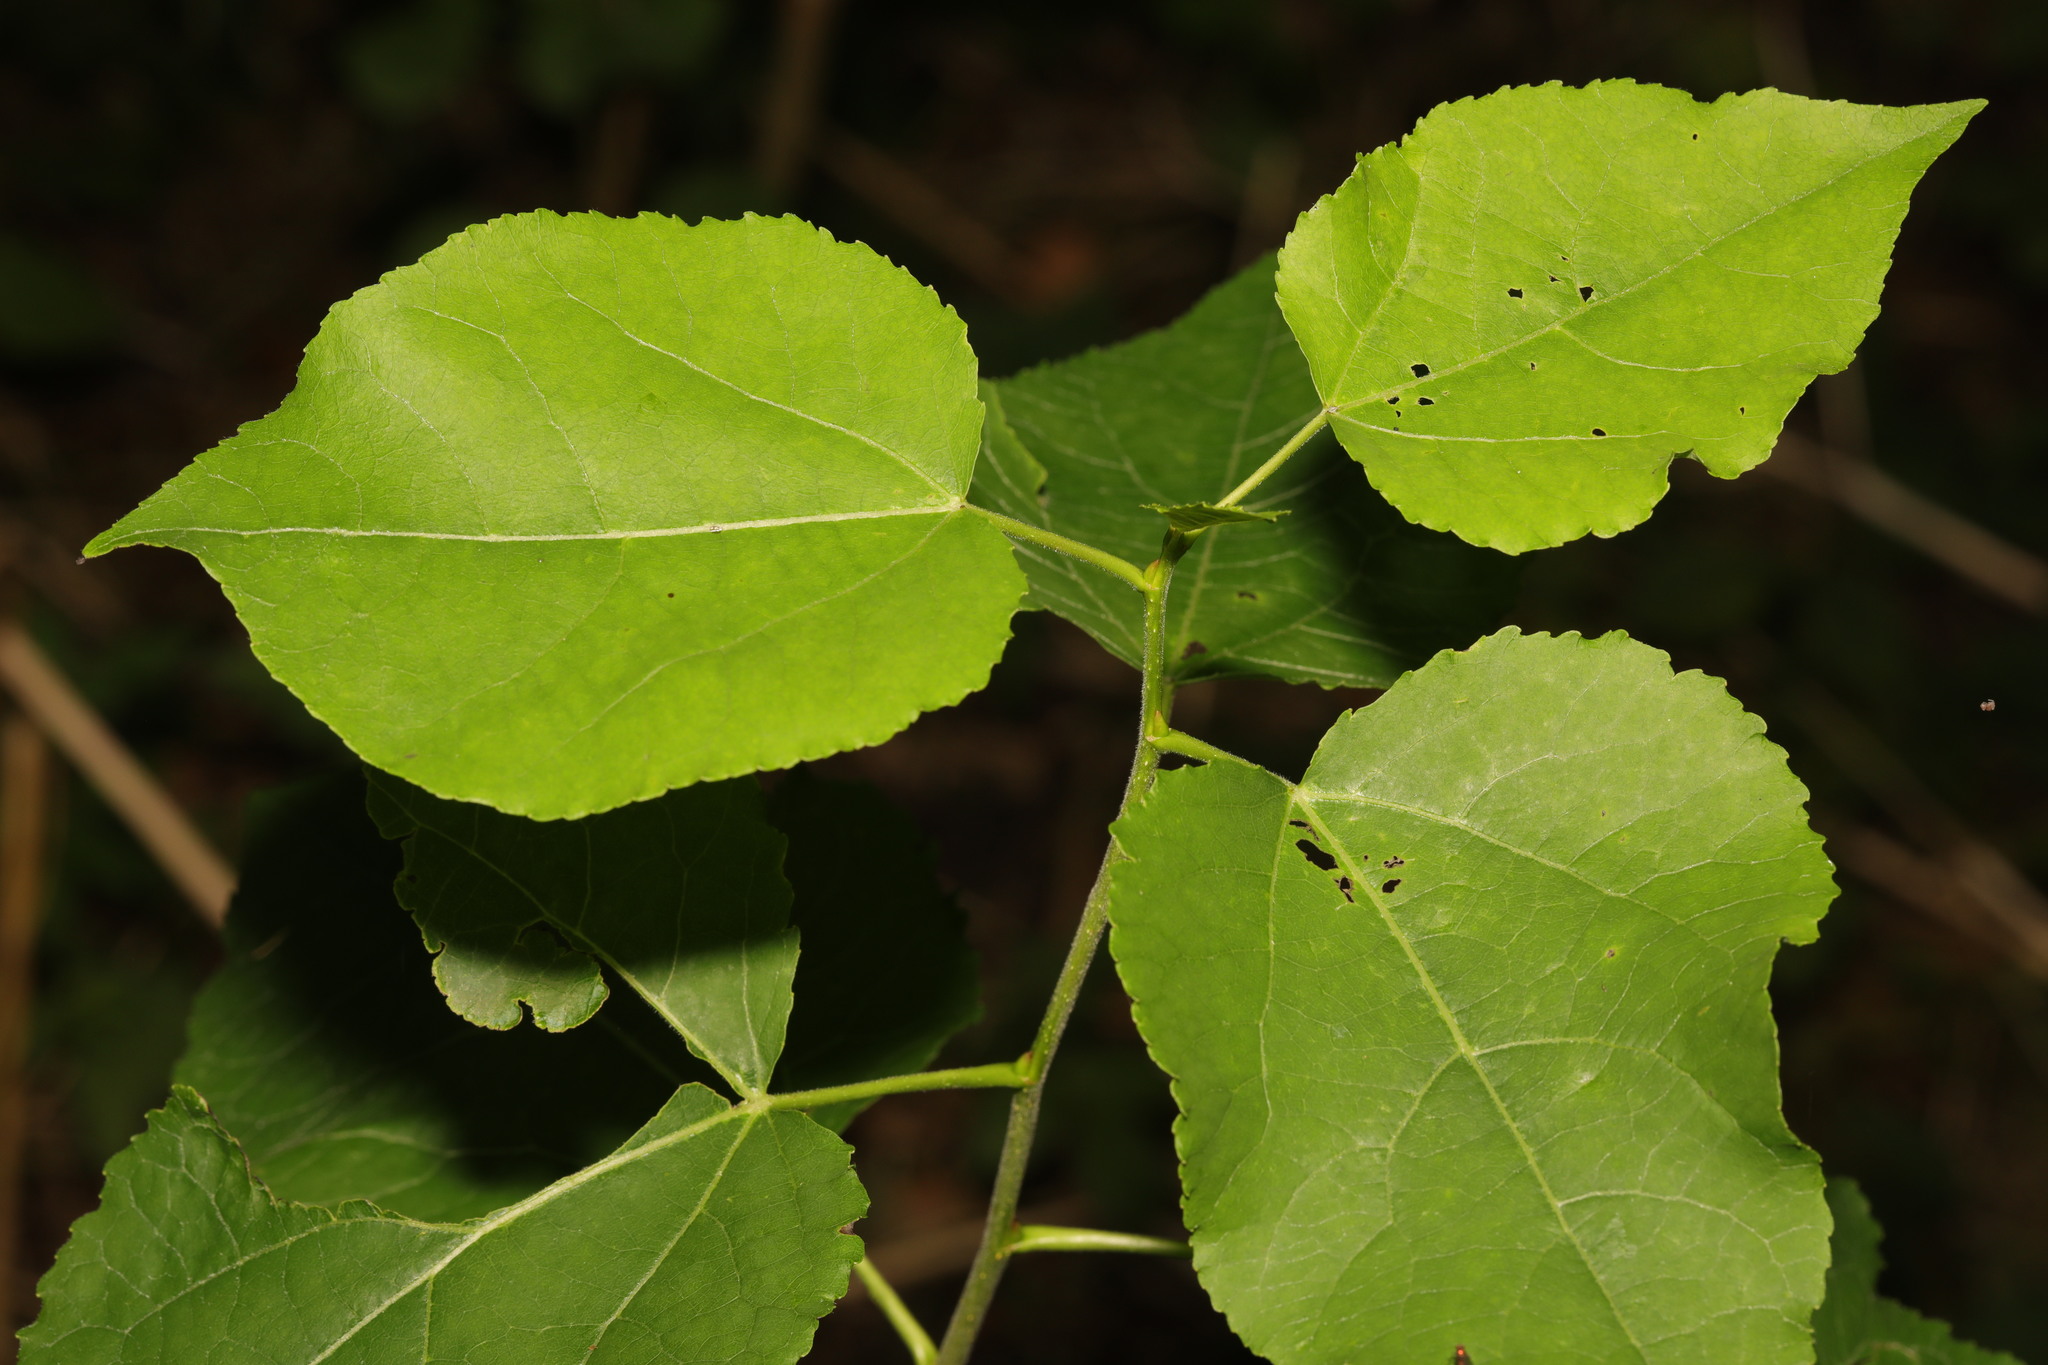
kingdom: Plantae
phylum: Tracheophyta
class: Magnoliopsida
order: Malpighiales
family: Salicaceae
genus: Populus
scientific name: Populus tremula
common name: European aspen
